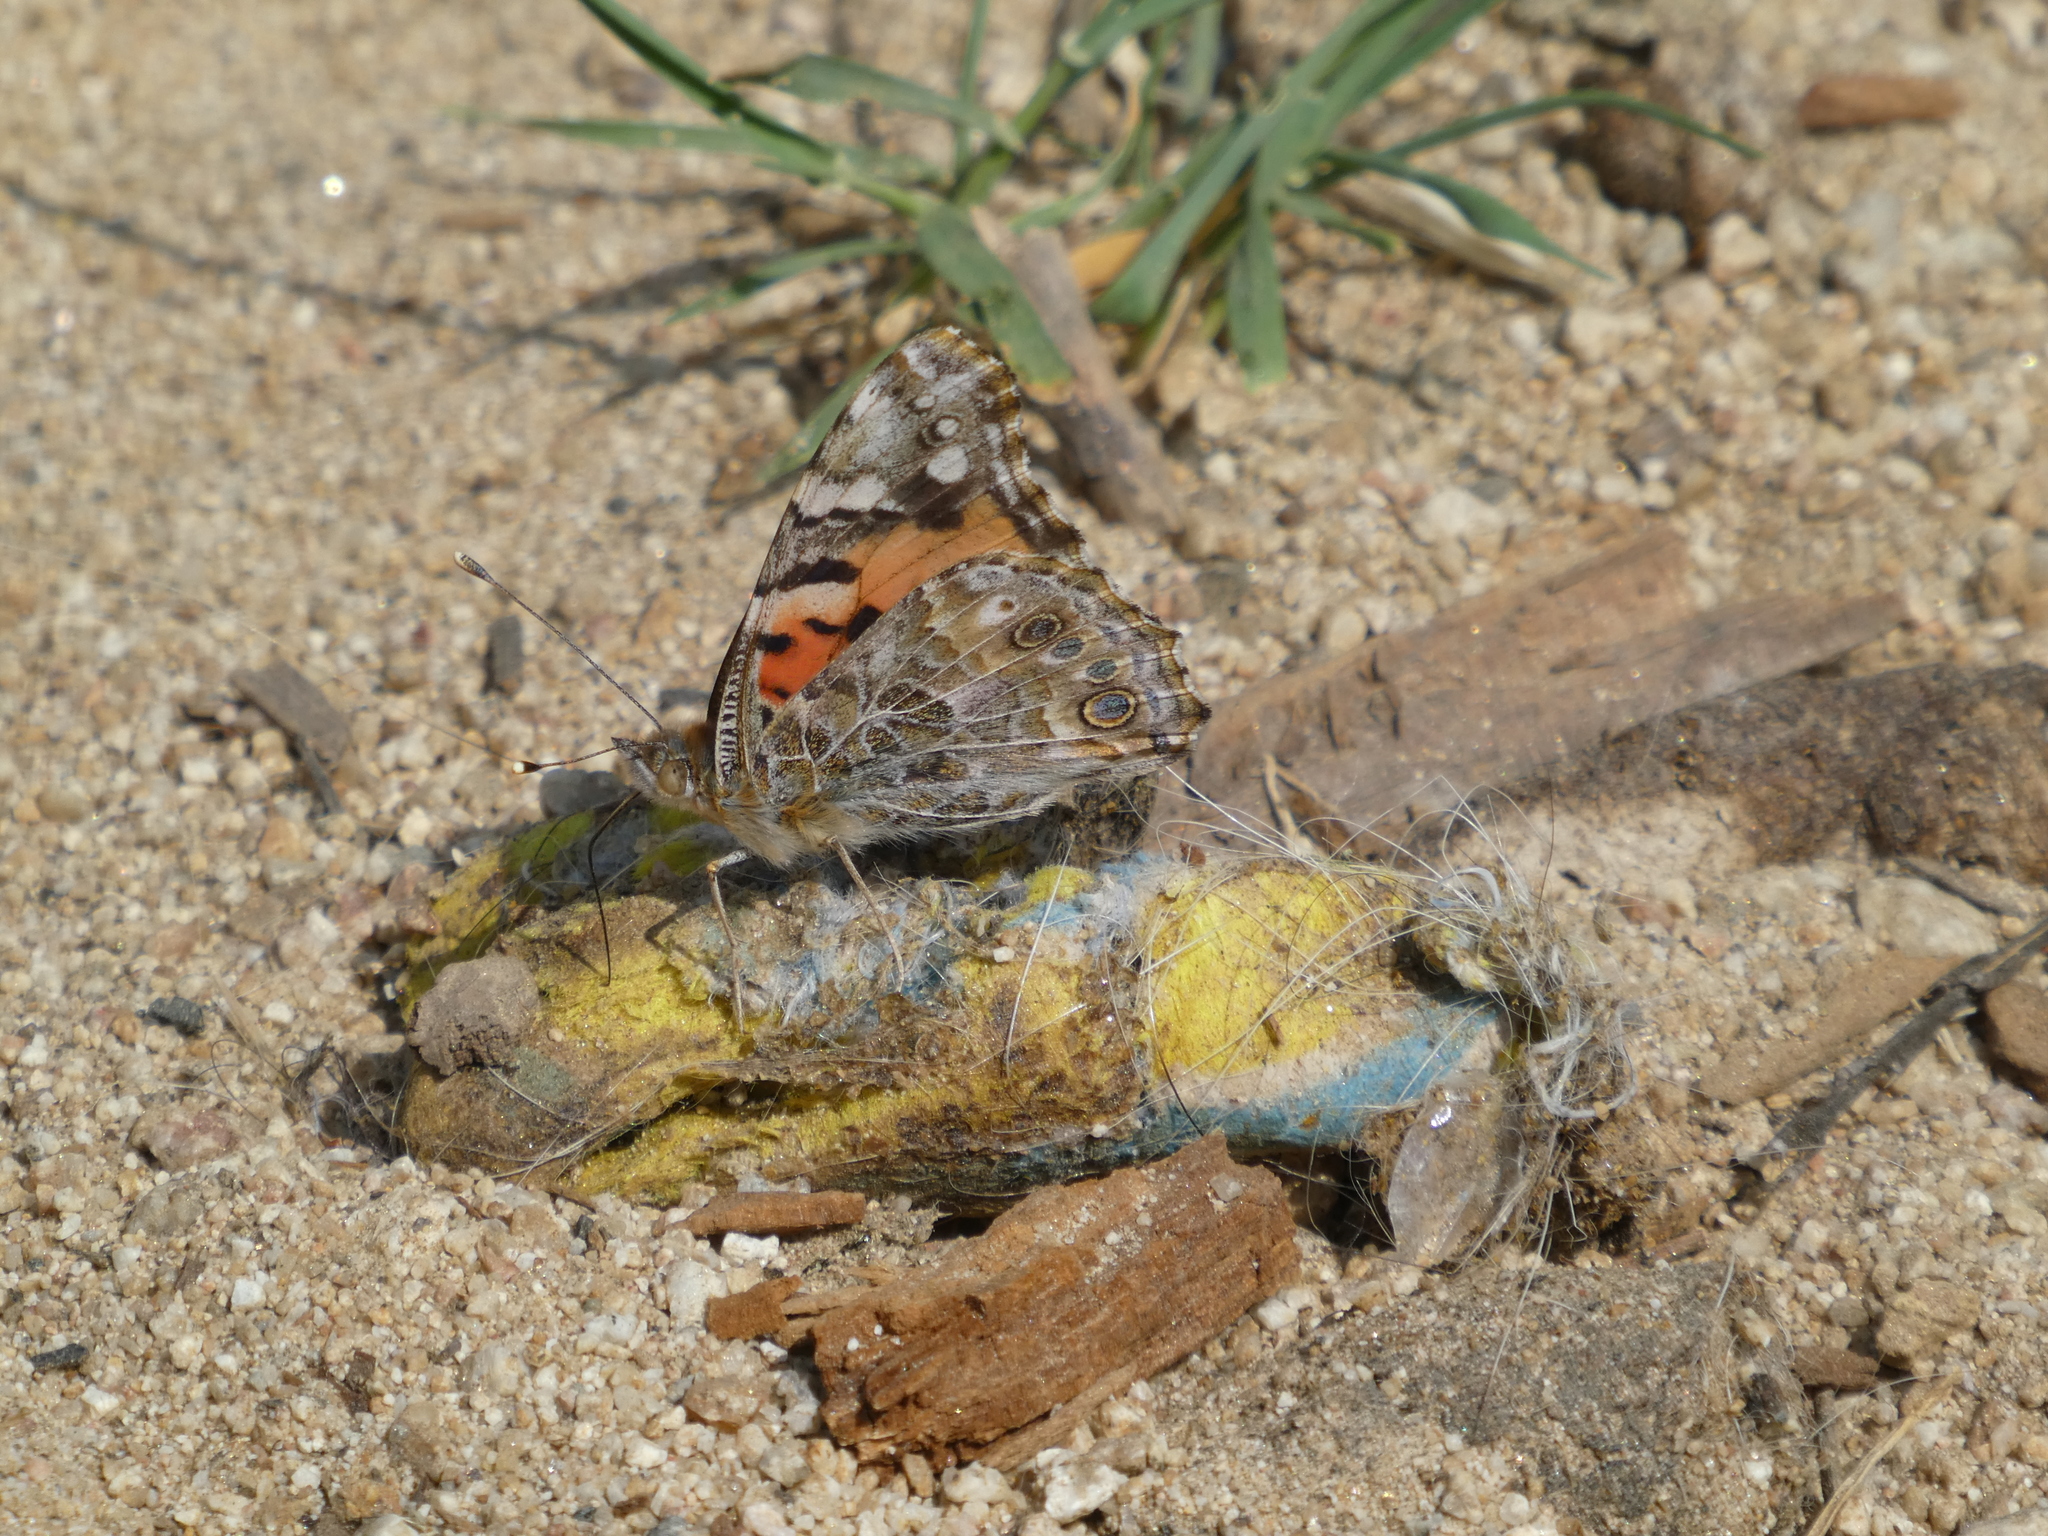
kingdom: Animalia
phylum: Arthropoda
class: Insecta
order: Lepidoptera
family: Nymphalidae
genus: Vanessa
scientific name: Vanessa cardui
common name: Painted lady
